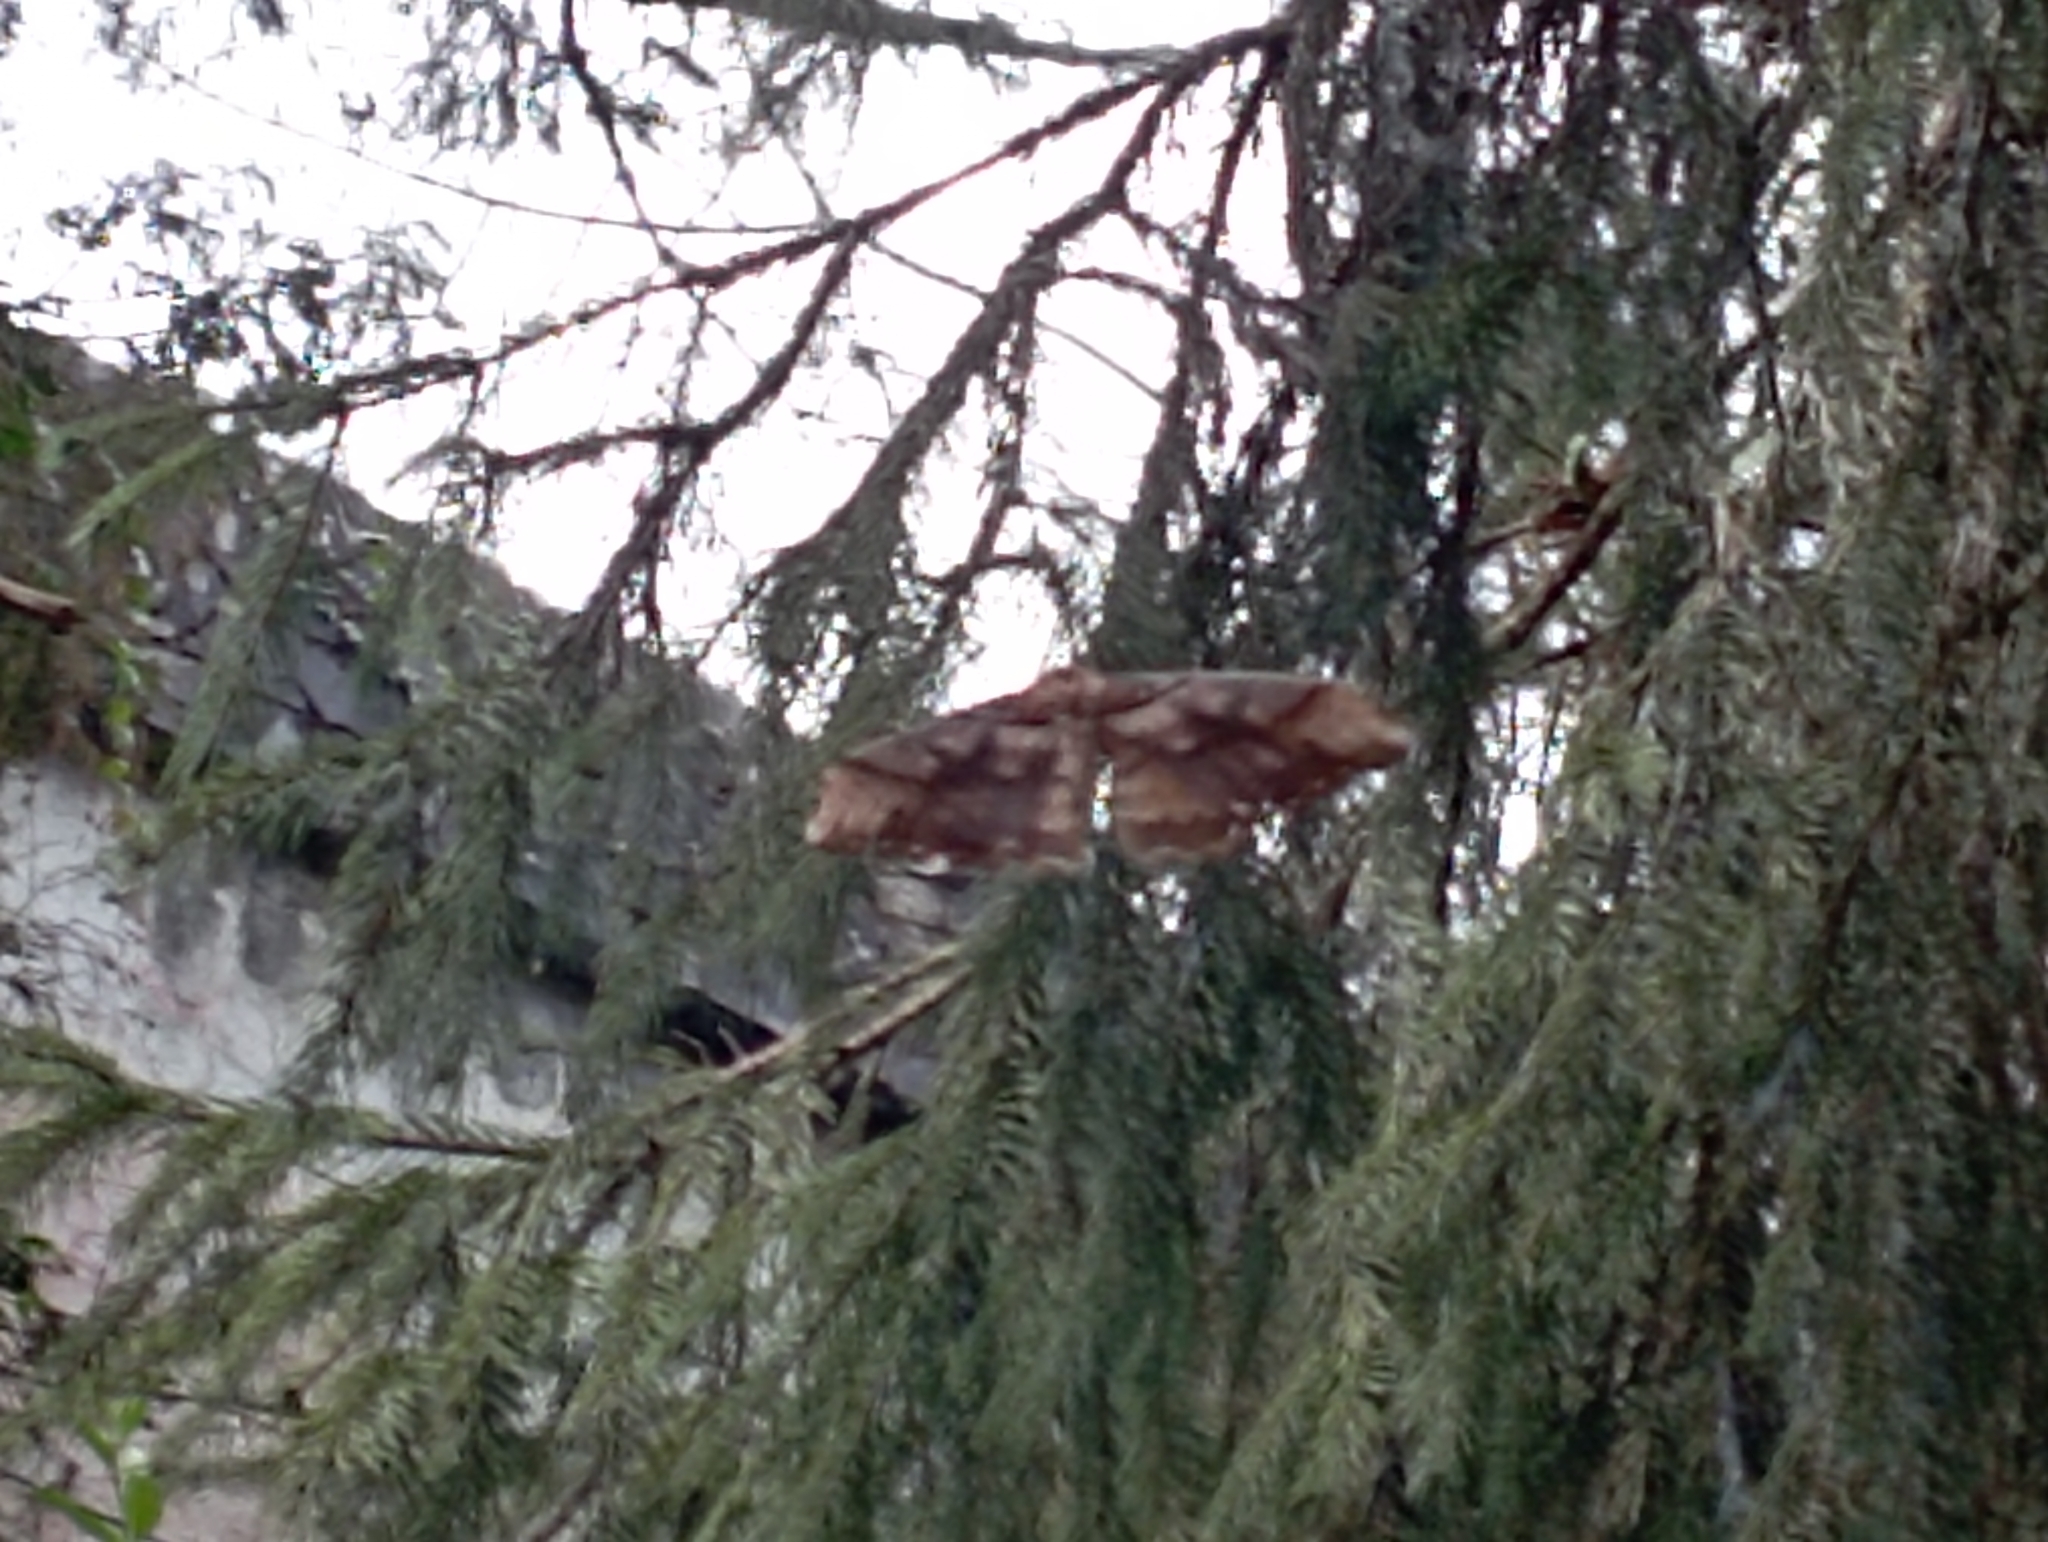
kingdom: Animalia
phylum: Arthropoda
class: Insecta
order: Lepidoptera
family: Saturniidae
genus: Rinaca
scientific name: Rinaca thibeta
